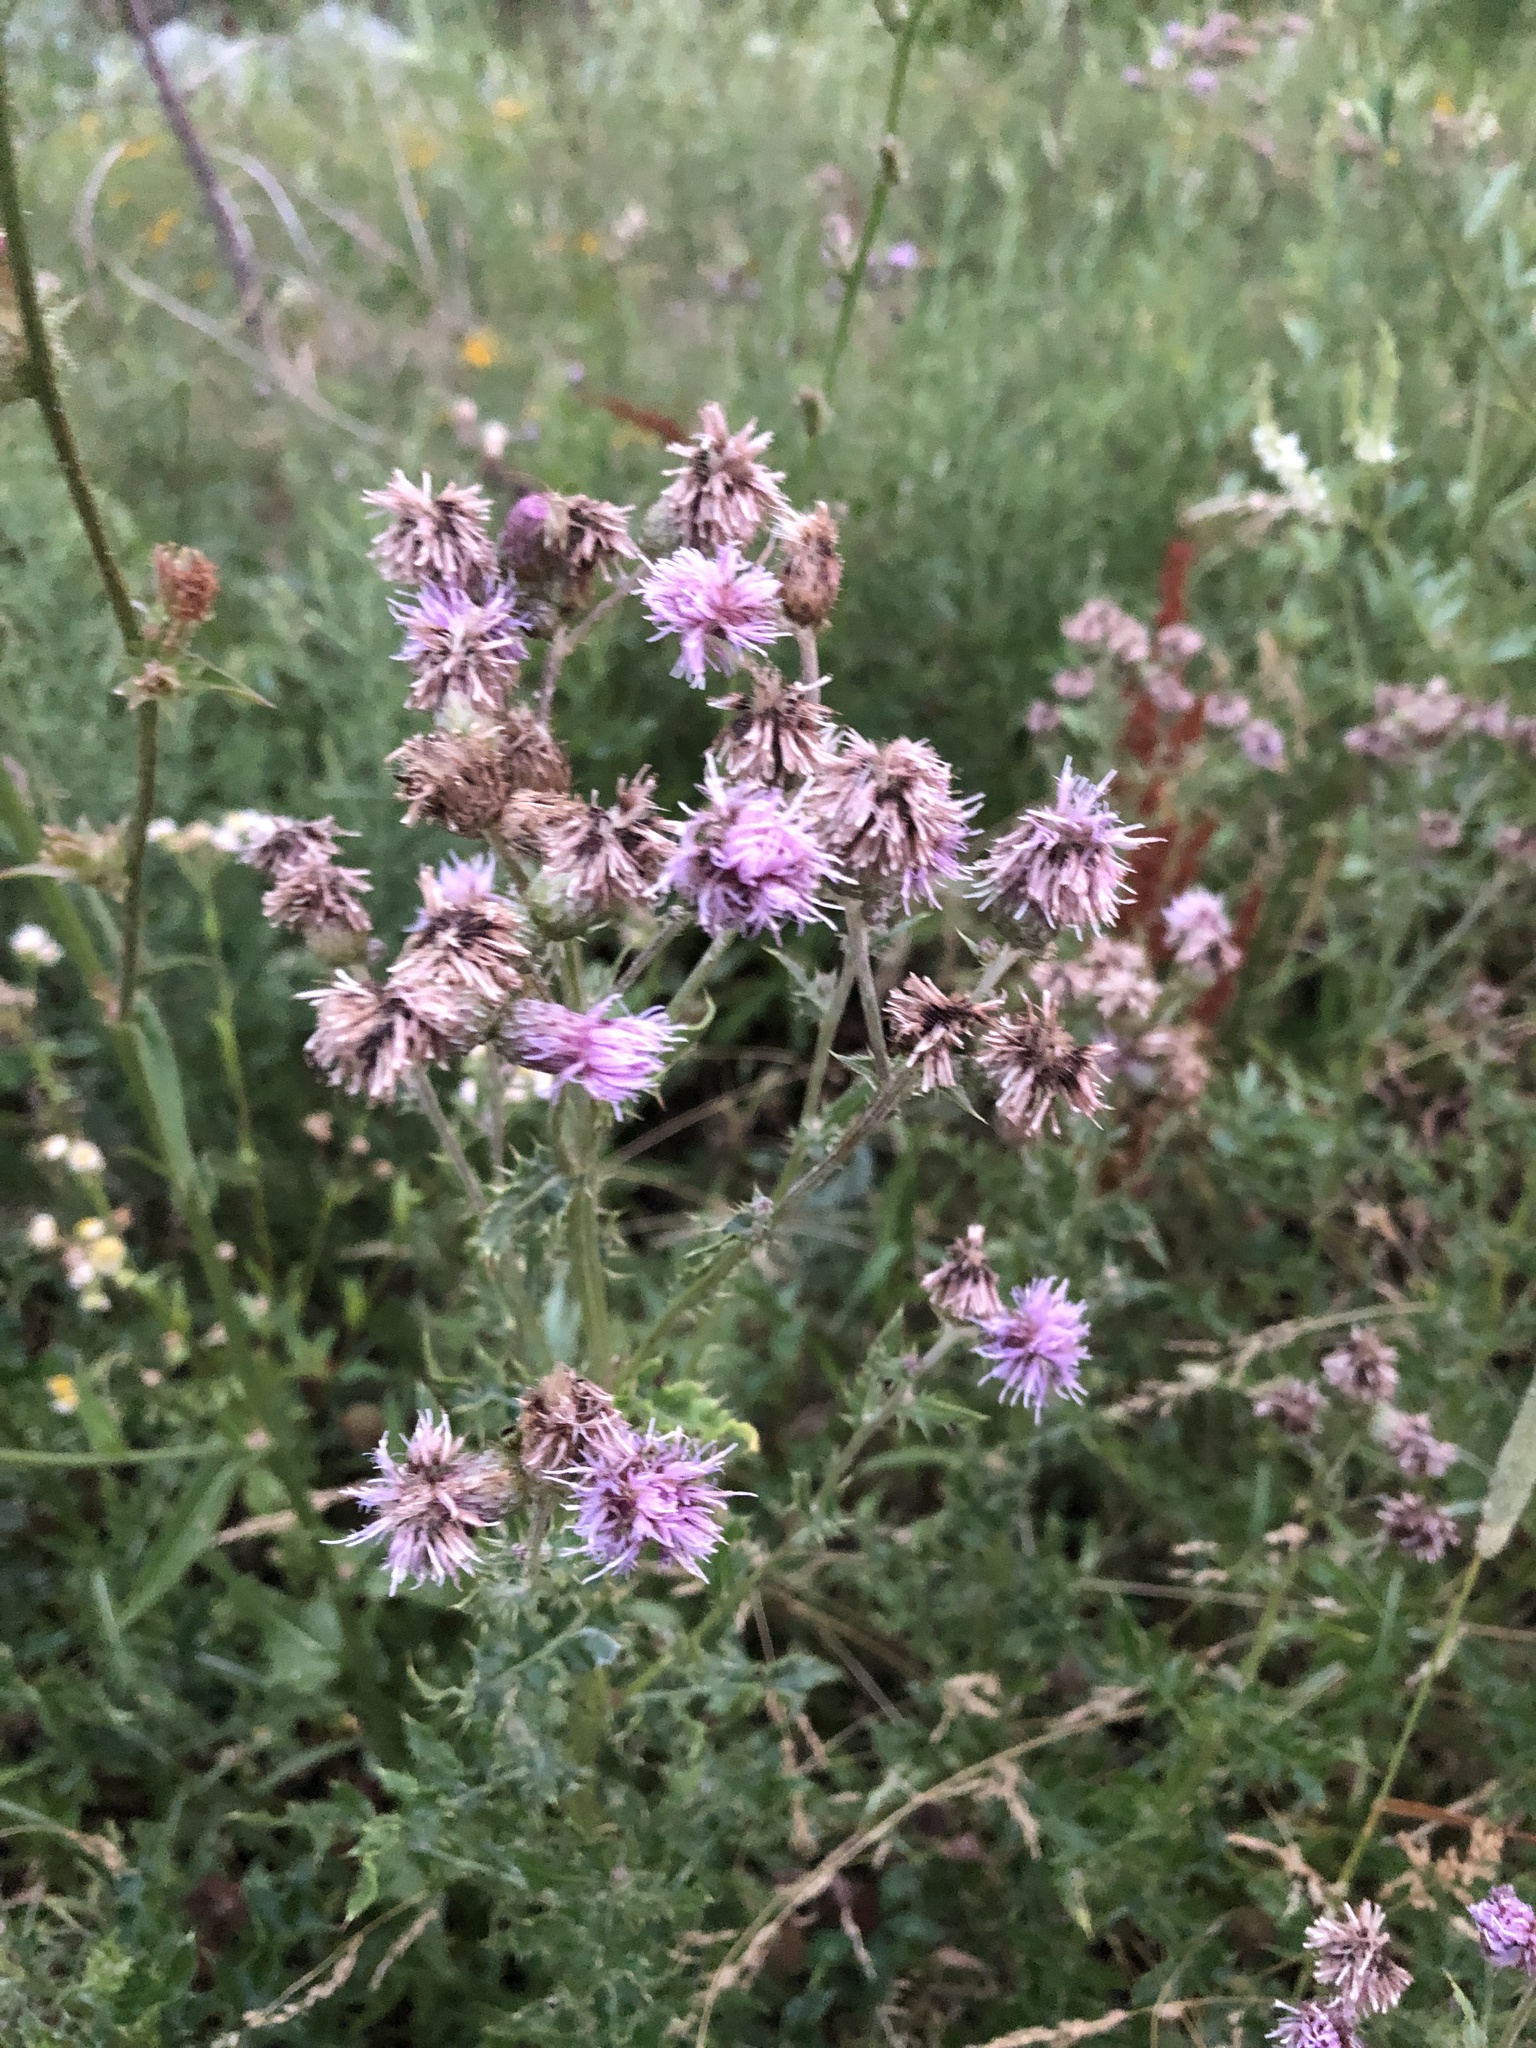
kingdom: Plantae
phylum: Tracheophyta
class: Magnoliopsida
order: Asterales
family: Asteraceae
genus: Cirsium
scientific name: Cirsium arvense
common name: Creeping thistle
